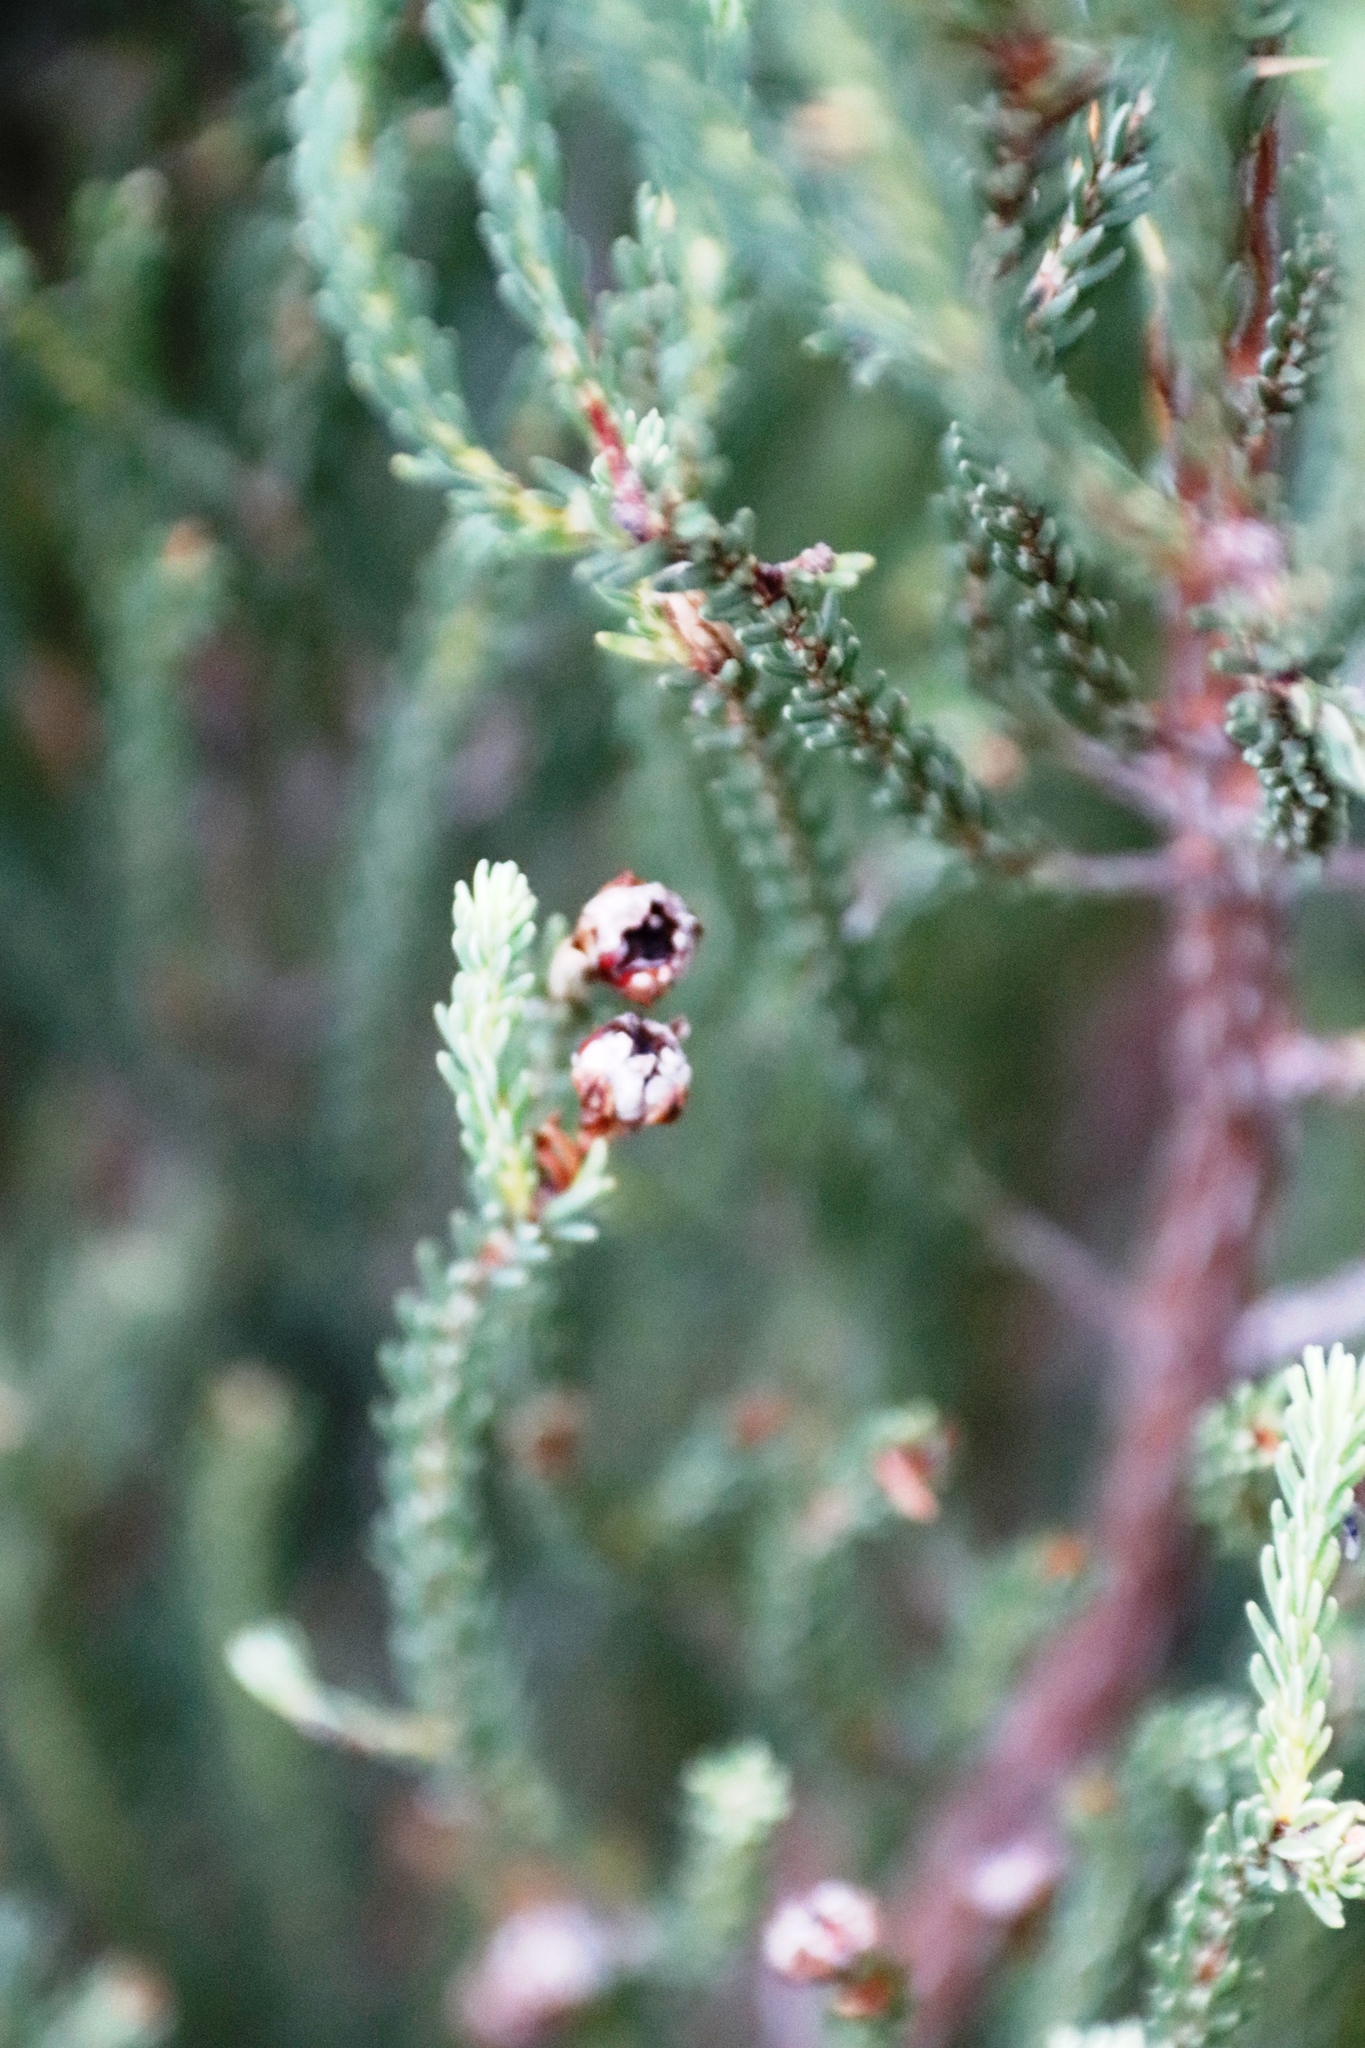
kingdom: Plantae
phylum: Tracheophyta
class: Magnoliopsida
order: Ericales
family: Ericaceae
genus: Erica
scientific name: Erica baccans
